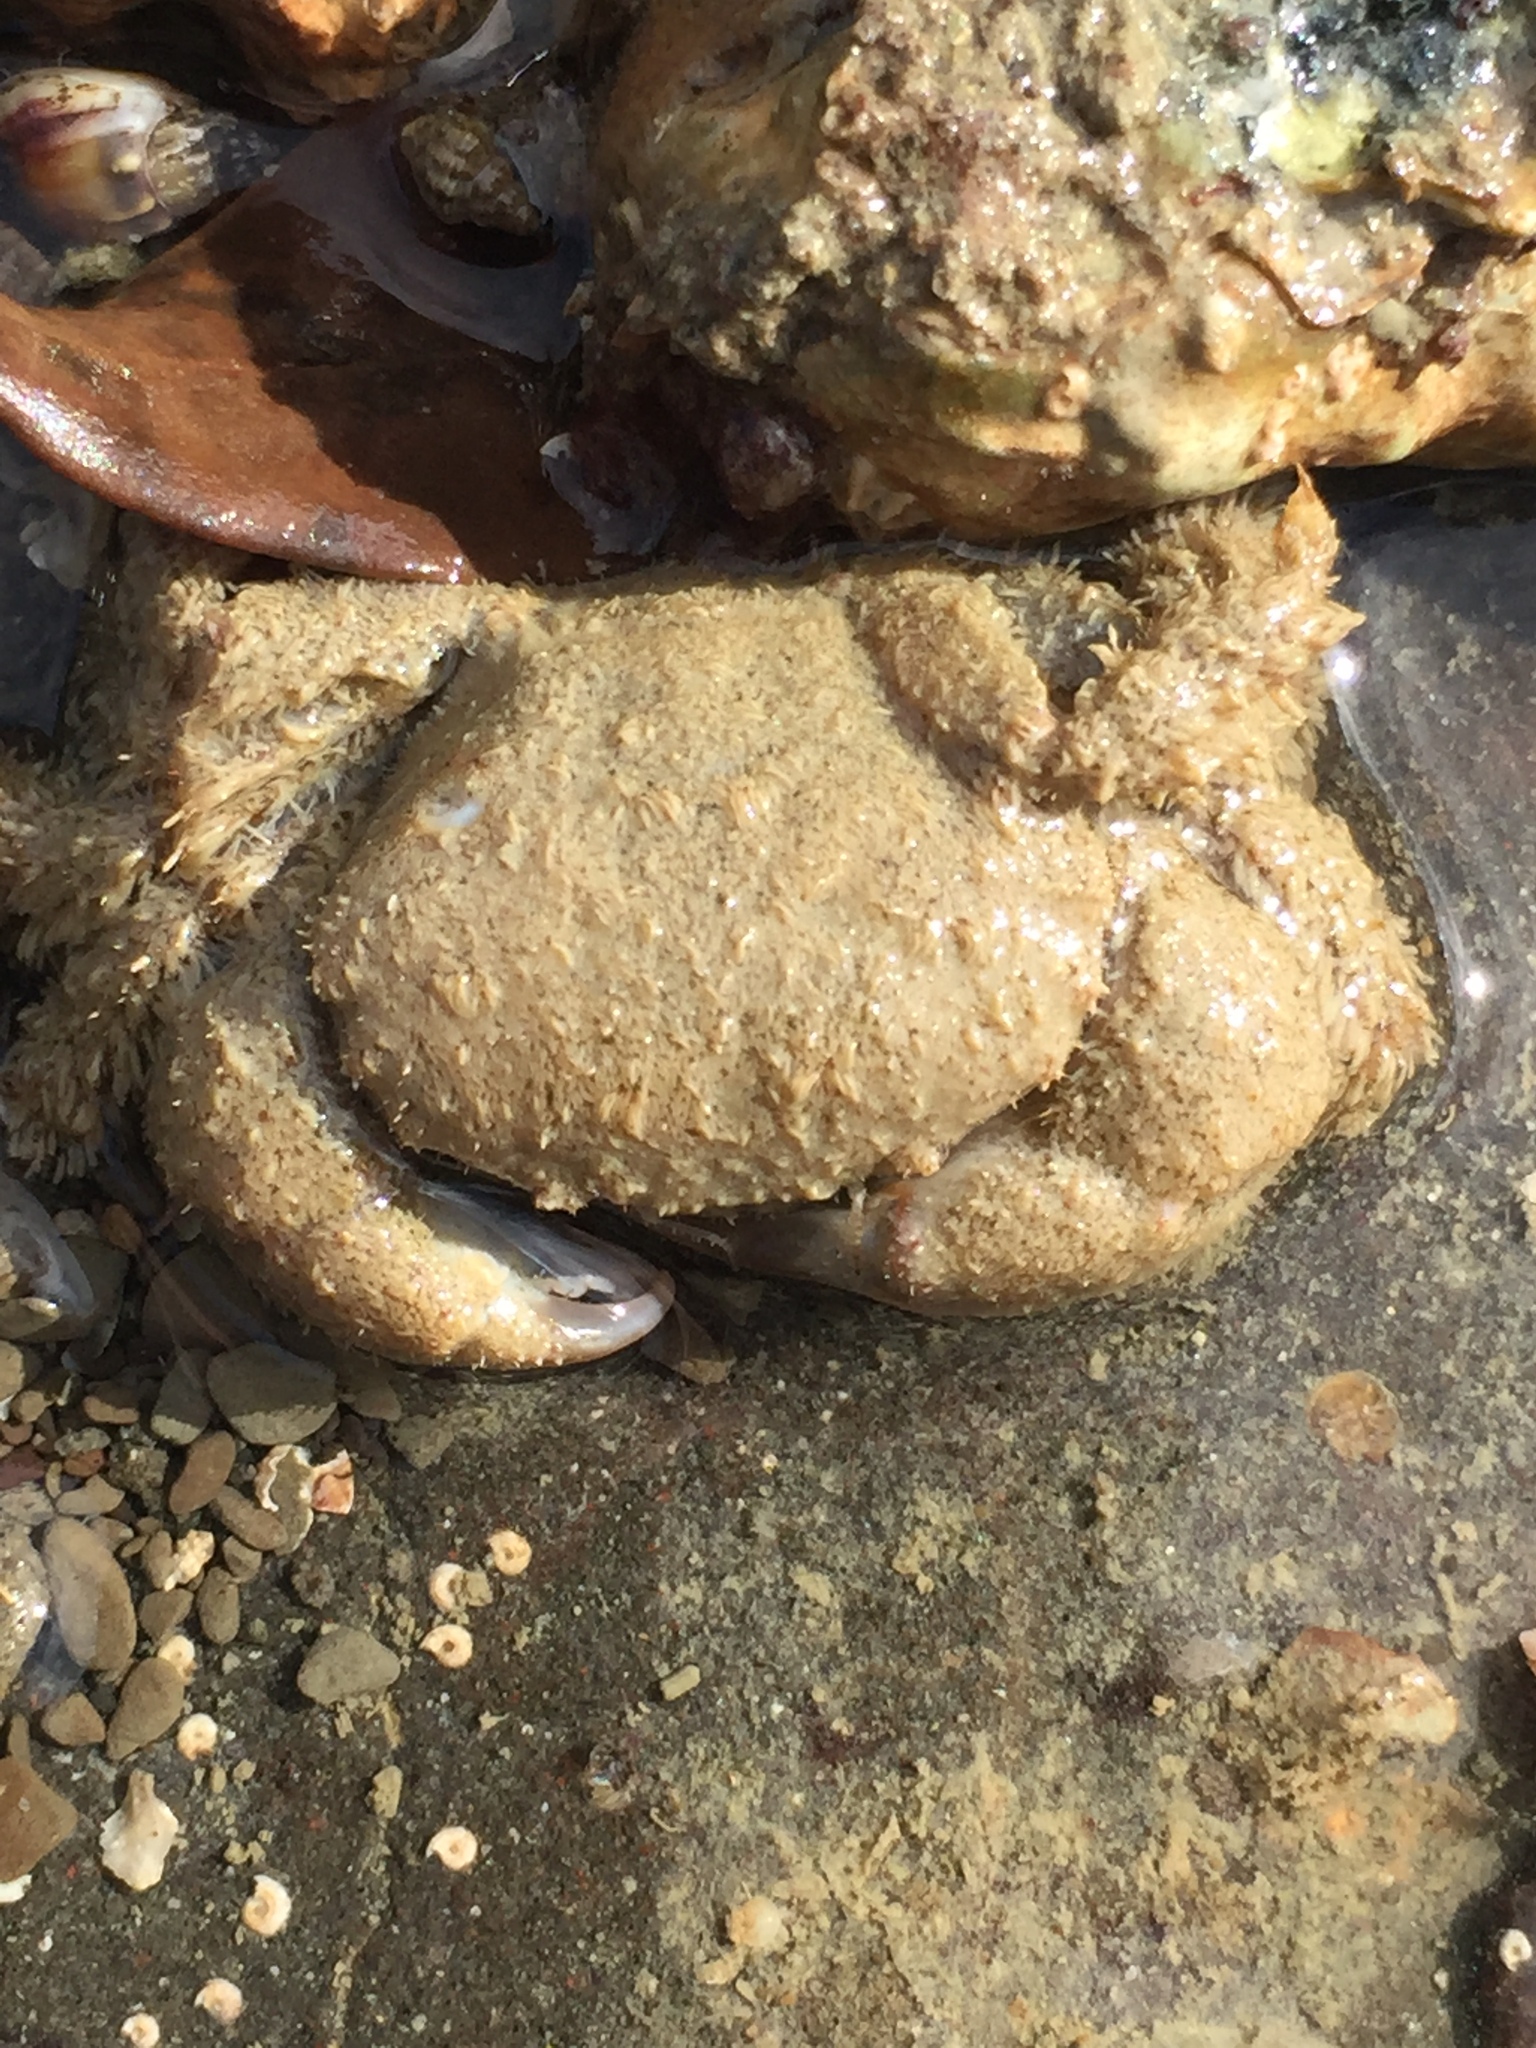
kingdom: Animalia
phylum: Arthropoda
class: Malacostraca
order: Decapoda
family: Pilumnidae
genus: Pilumnus
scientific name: Pilumnus lumpinus
